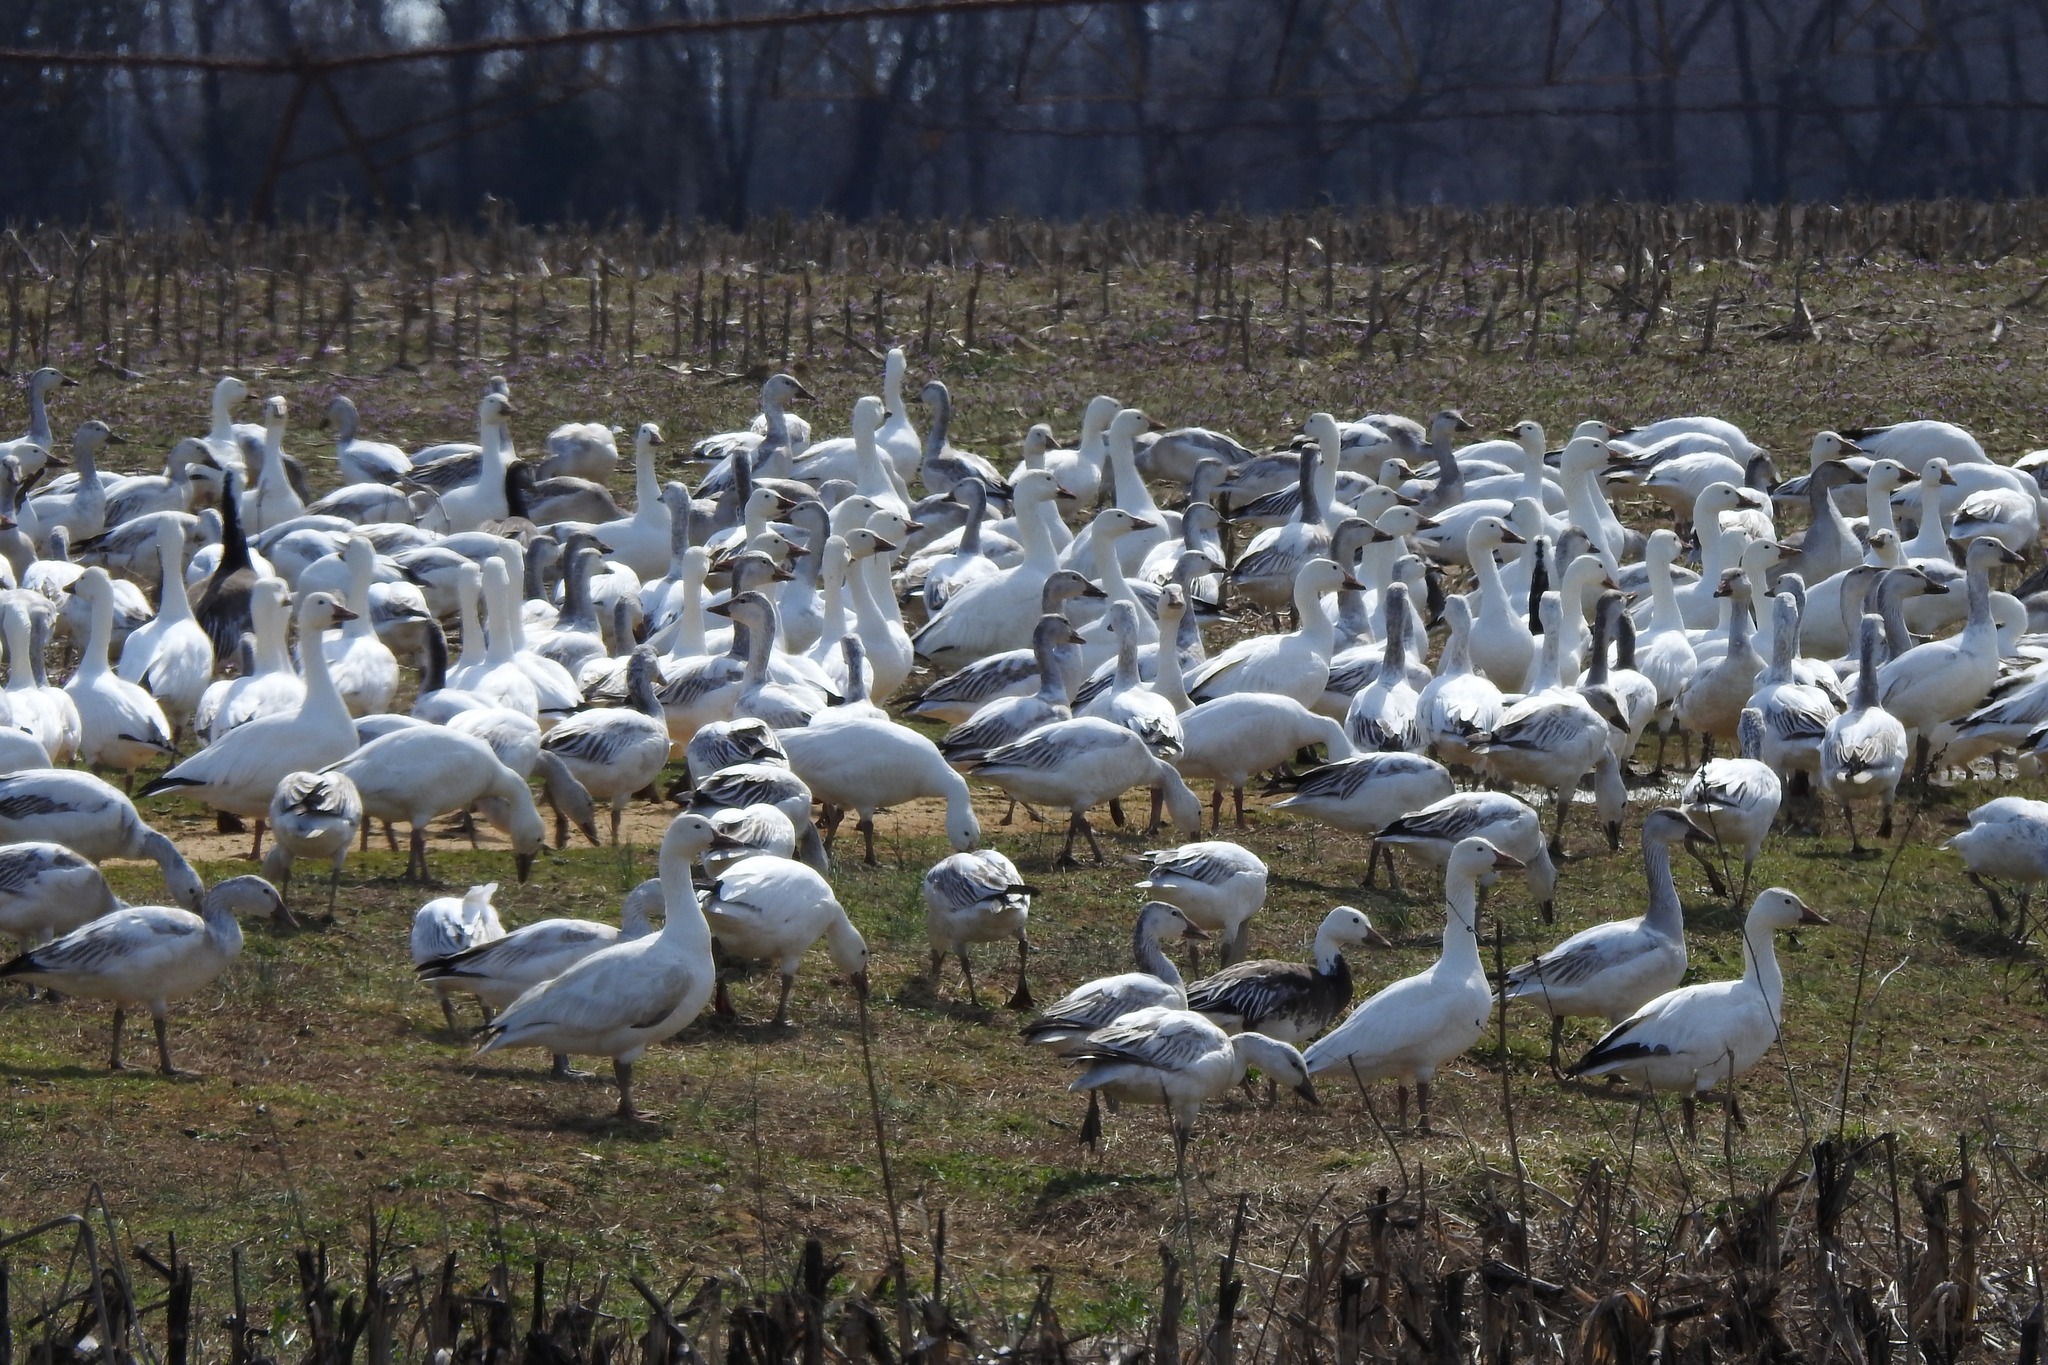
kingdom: Animalia
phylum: Chordata
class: Aves
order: Anseriformes
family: Anatidae
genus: Anser
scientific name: Anser caerulescens
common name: Snow goose
